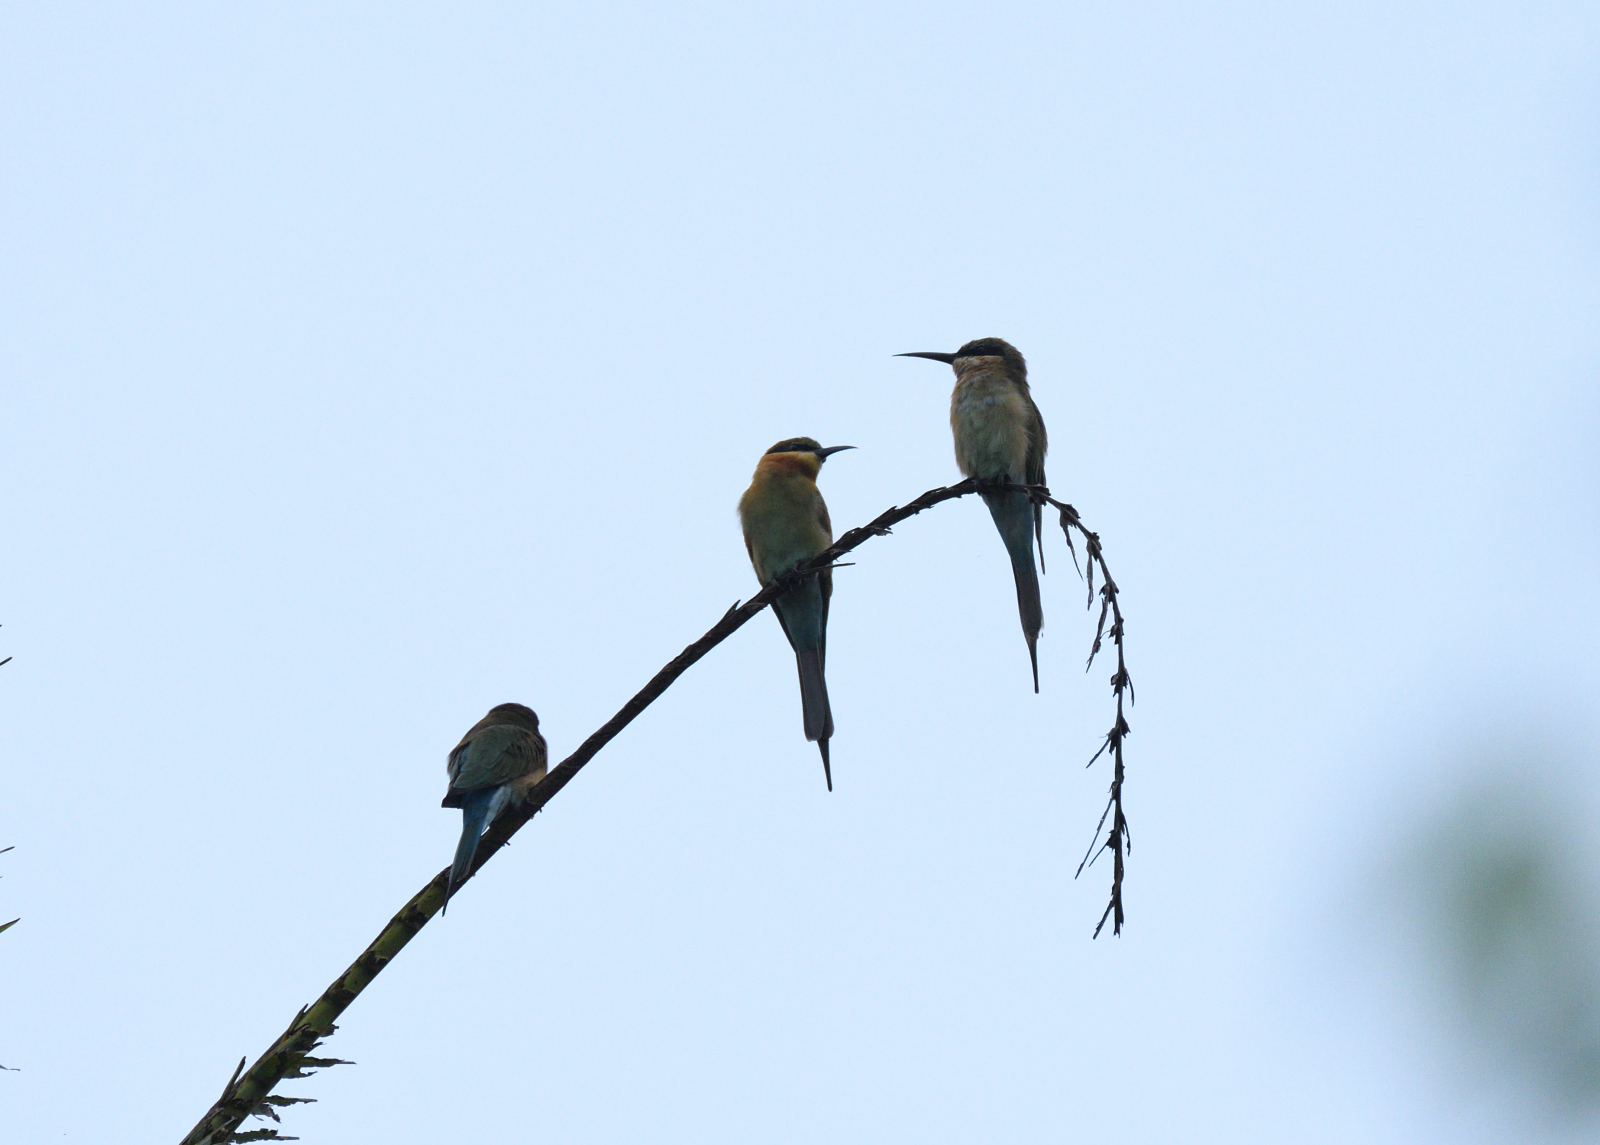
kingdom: Animalia
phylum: Chordata
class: Aves
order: Coraciiformes
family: Meropidae
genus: Merops
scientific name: Merops philippinus
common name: Blue-tailed bee-eater
